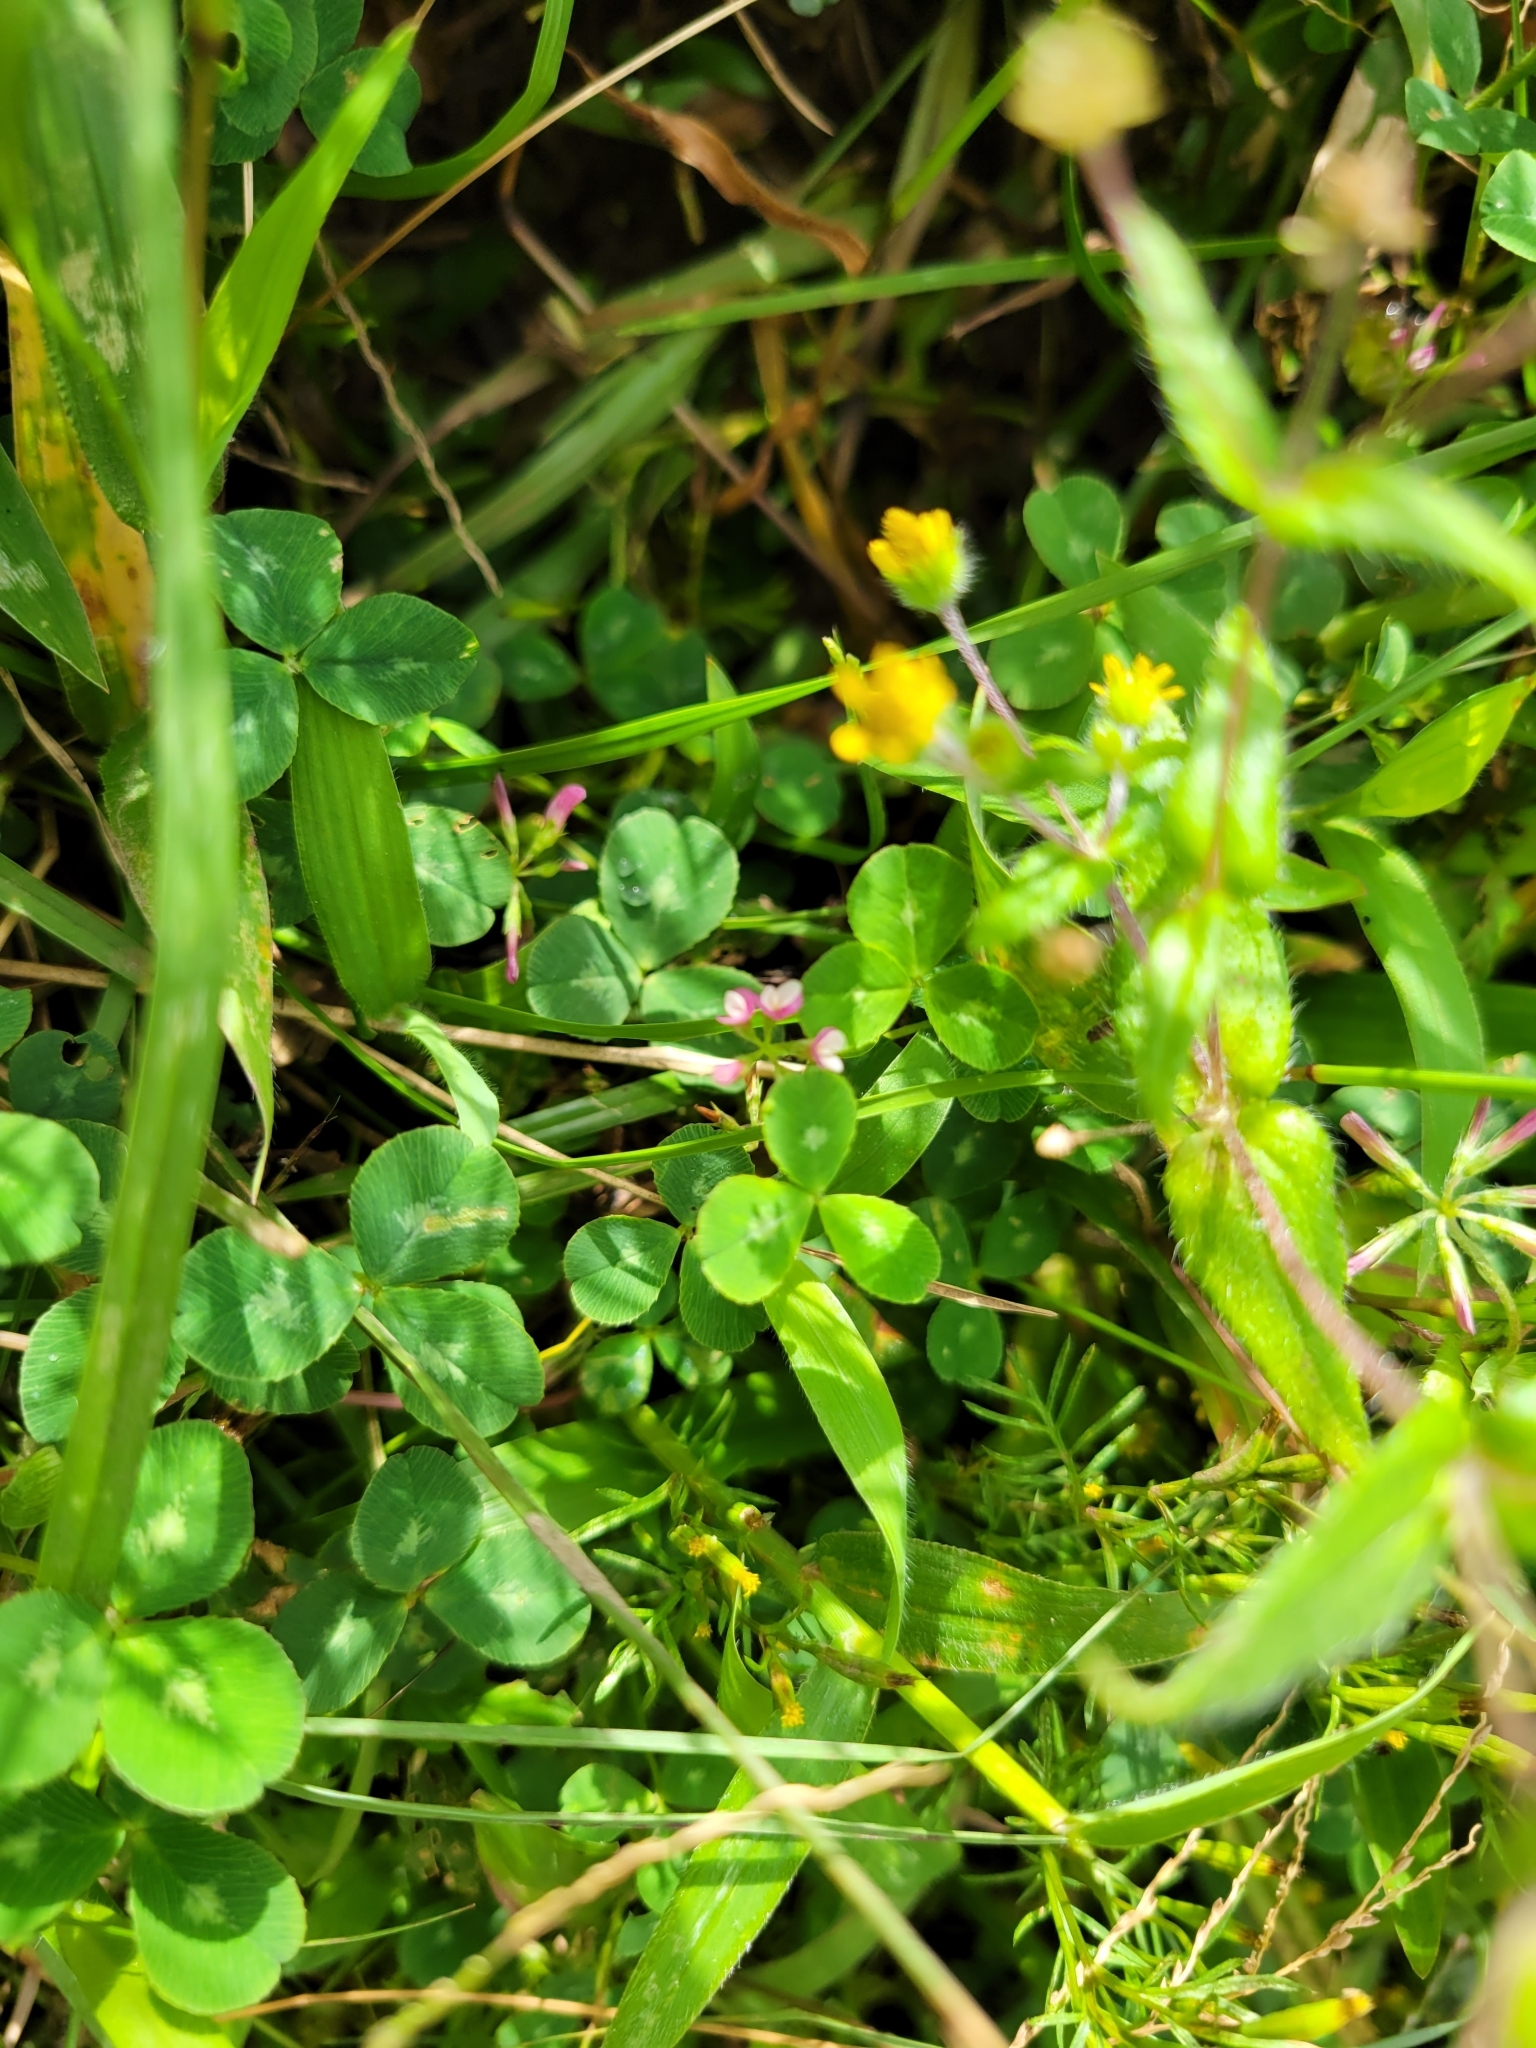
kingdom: Plantae
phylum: Tracheophyta
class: Magnoliopsida
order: Fabales
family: Fabaceae
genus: Trifolium
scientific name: Trifolium amabile
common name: Aztec clover
